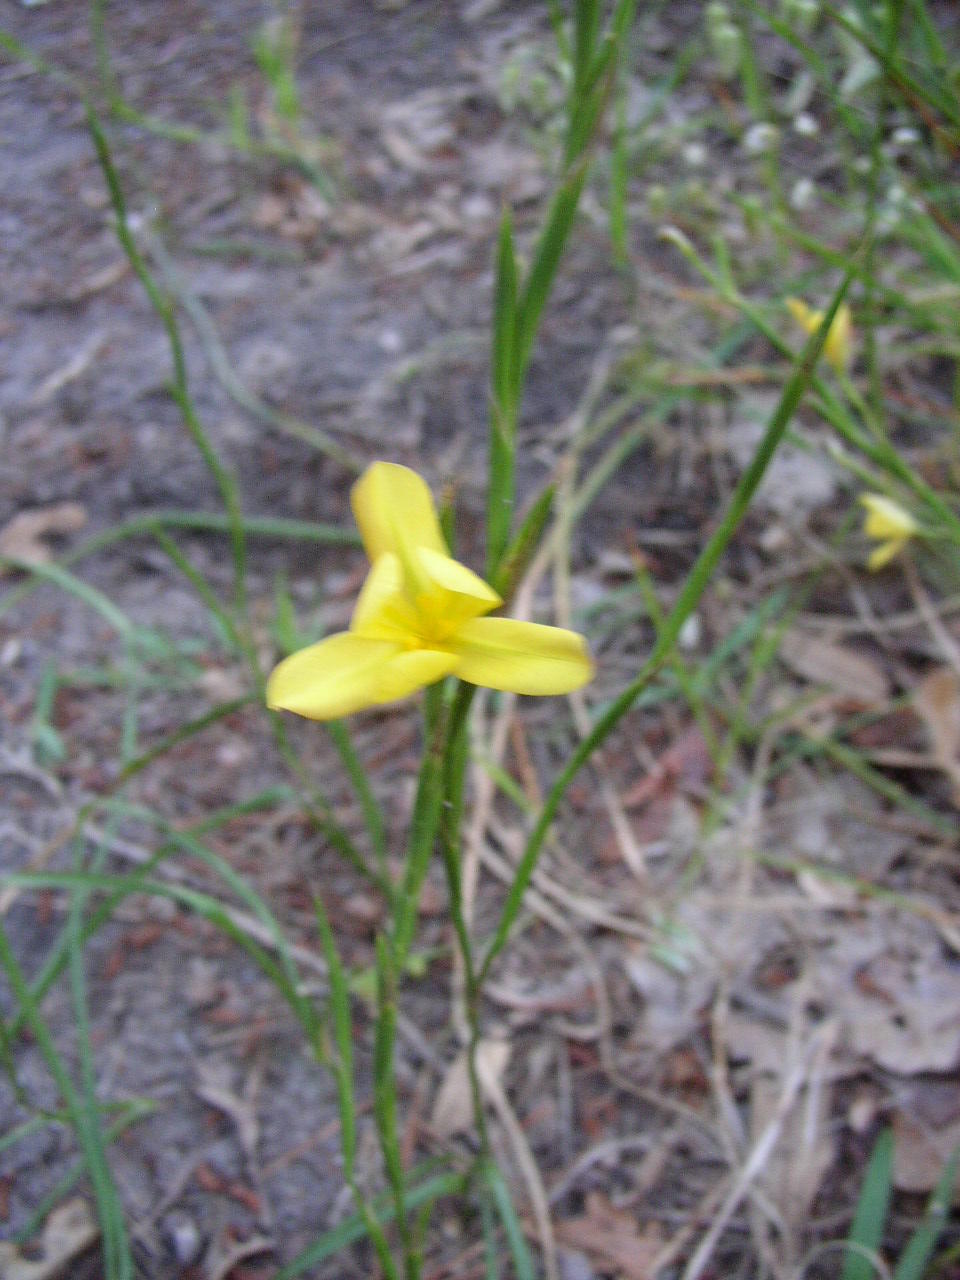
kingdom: Plantae
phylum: Tracheophyta
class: Liliopsida
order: Asparagales
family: Iridaceae
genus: Moraea
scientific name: Moraea collina
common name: Cape-tulip
